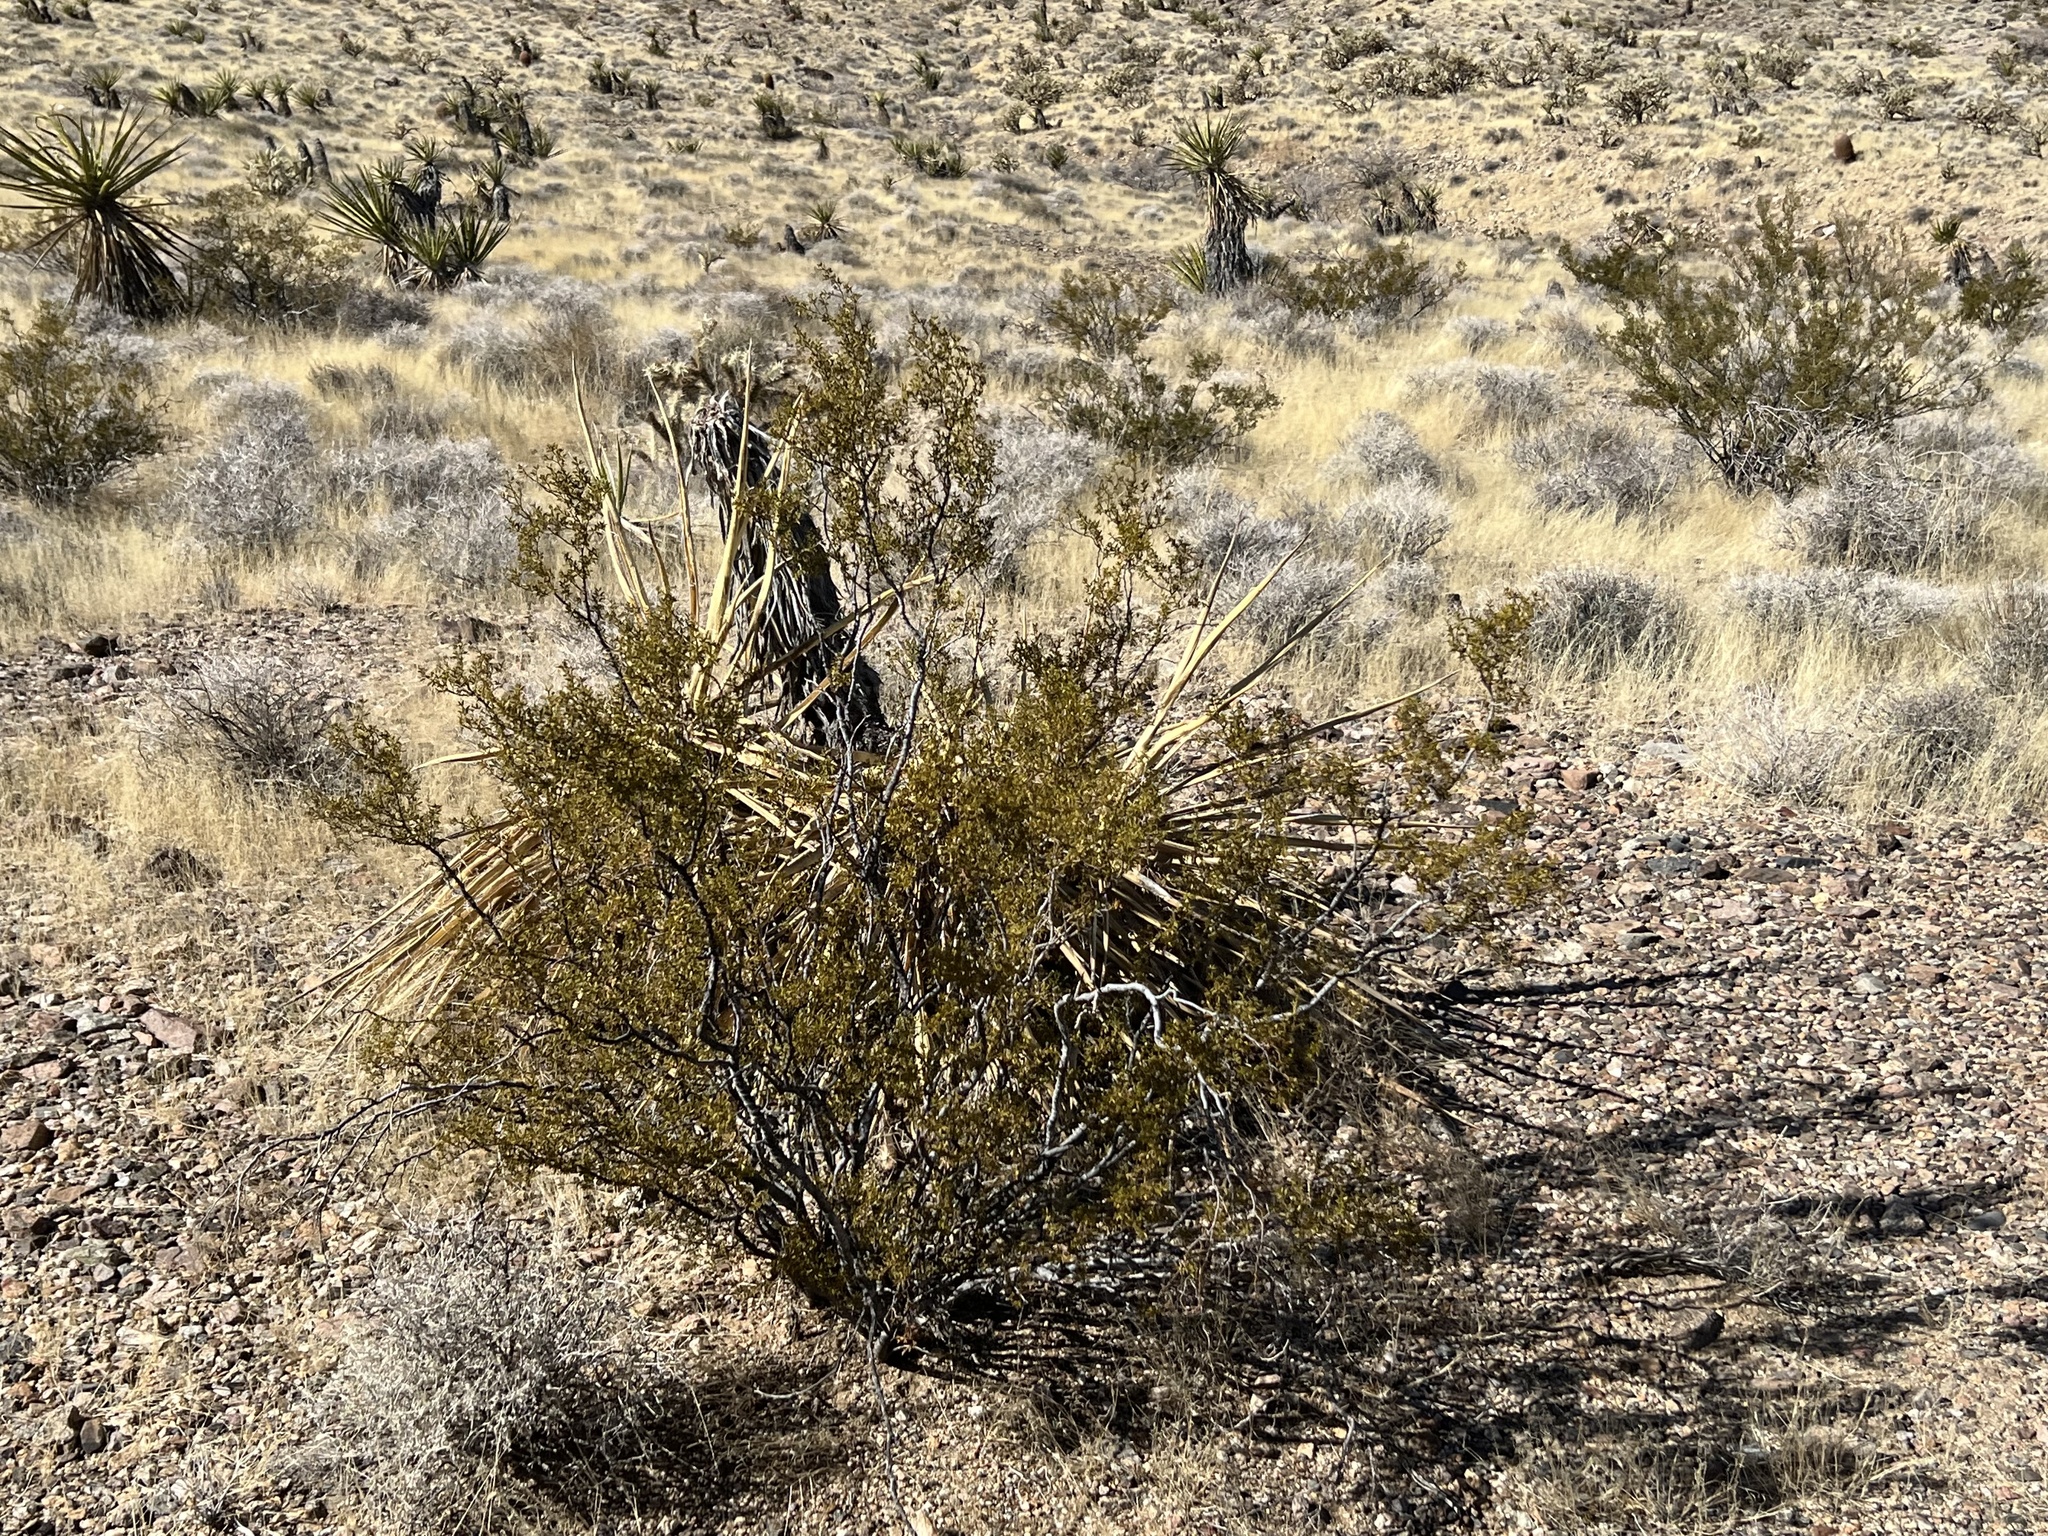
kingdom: Plantae
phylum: Tracheophyta
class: Magnoliopsida
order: Zygophyllales
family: Zygophyllaceae
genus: Larrea
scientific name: Larrea tridentata
